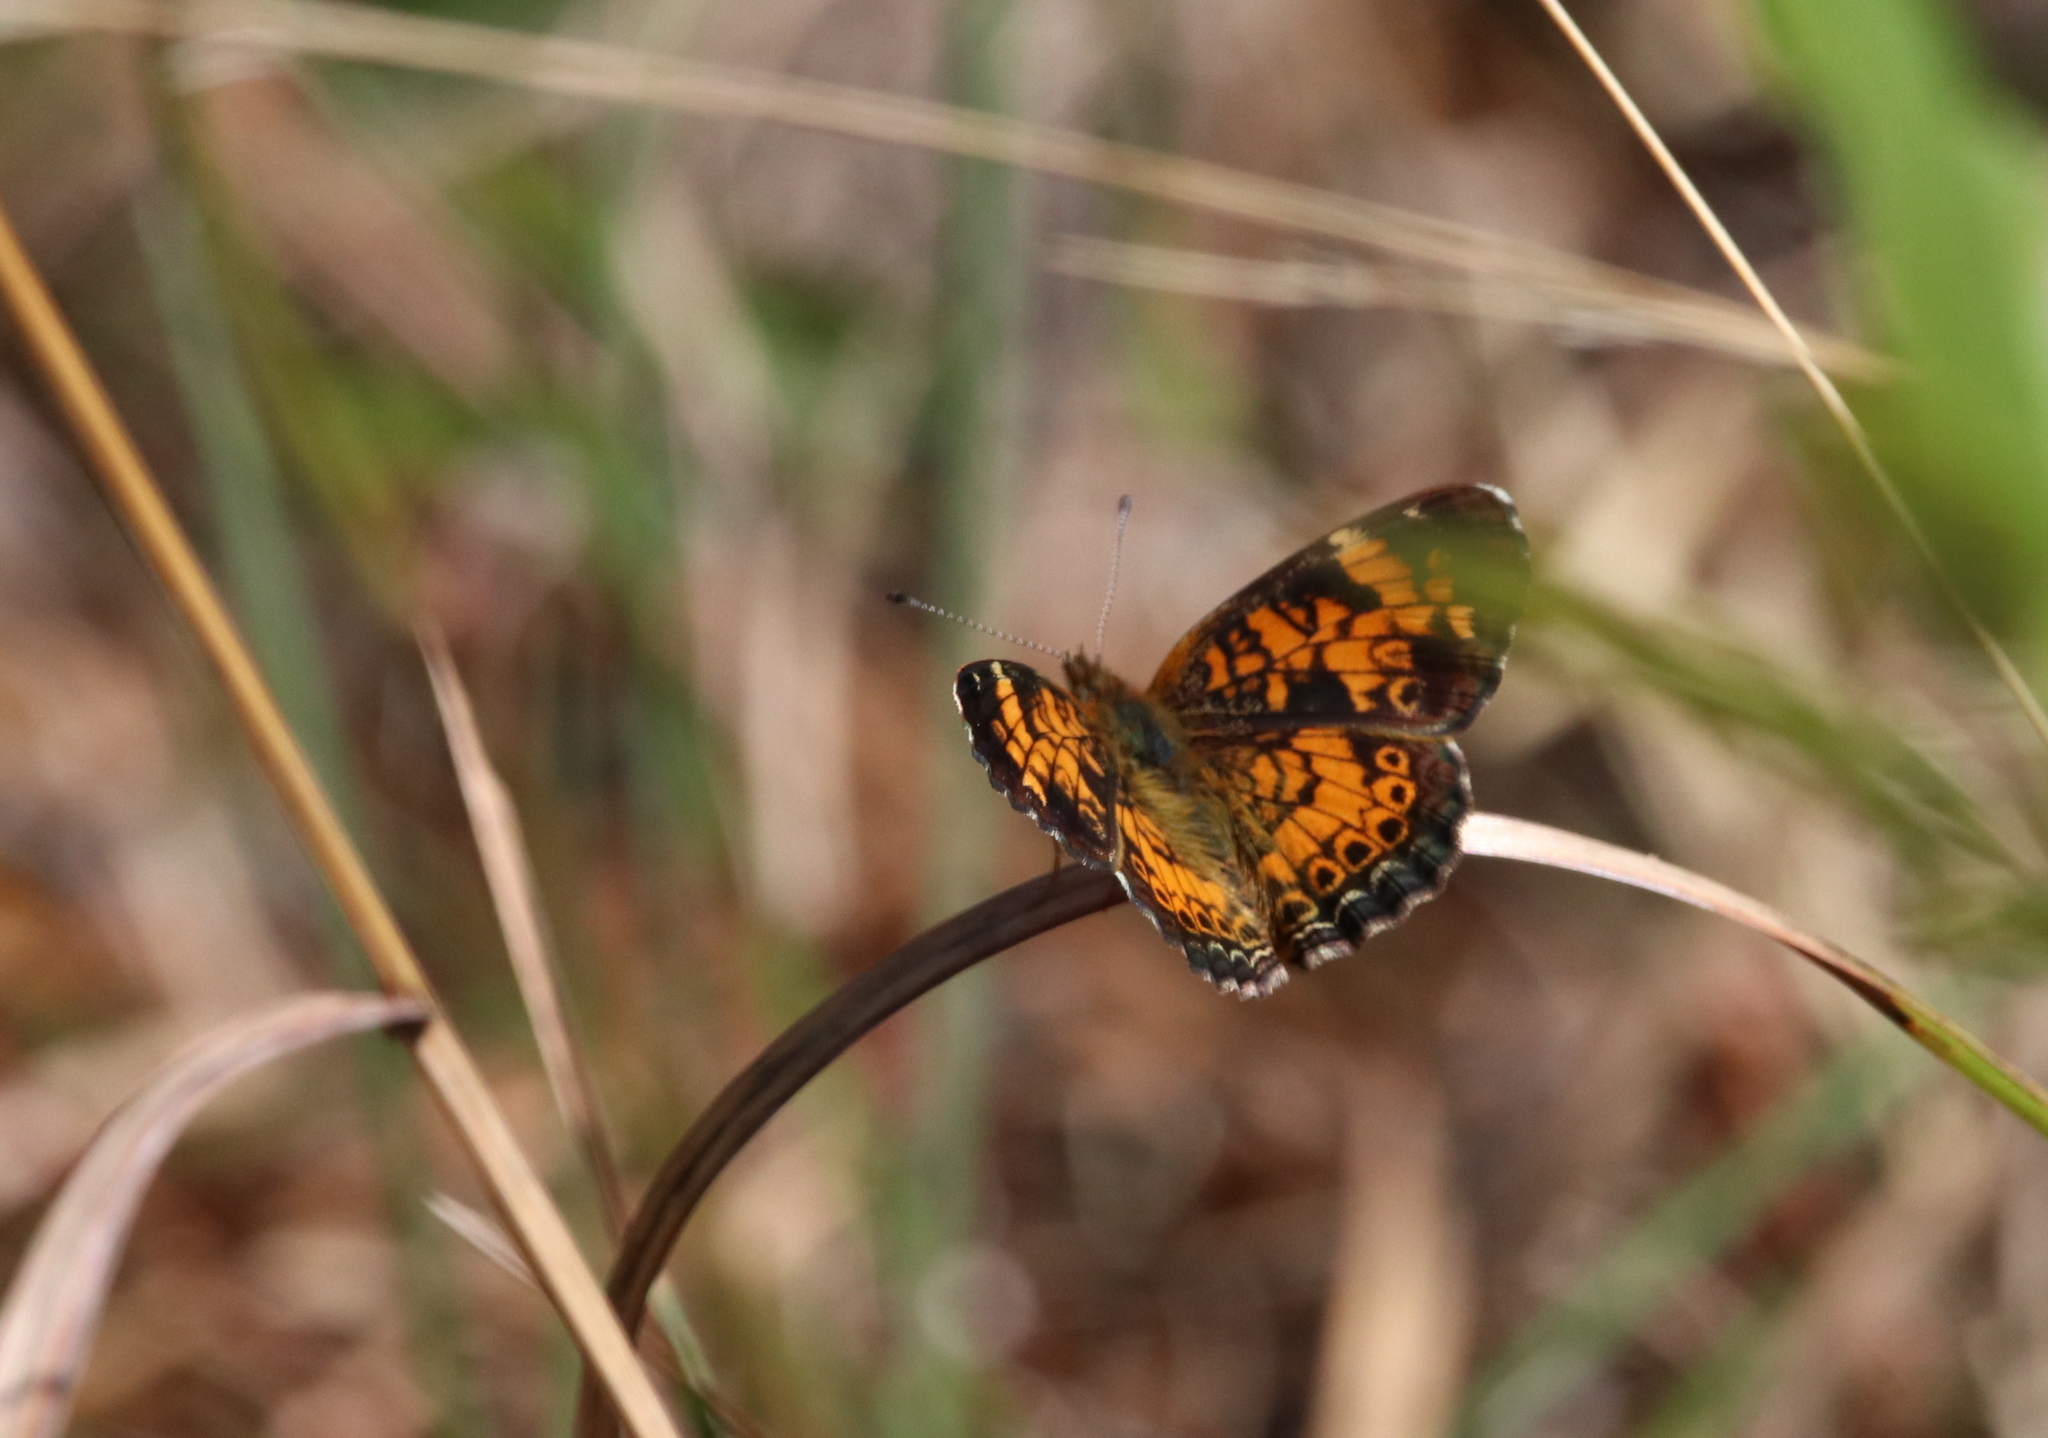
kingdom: Animalia
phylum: Arthropoda
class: Insecta
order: Lepidoptera
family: Nymphalidae
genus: Phyciodes
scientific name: Phyciodes tharos
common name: Pearl crescent
